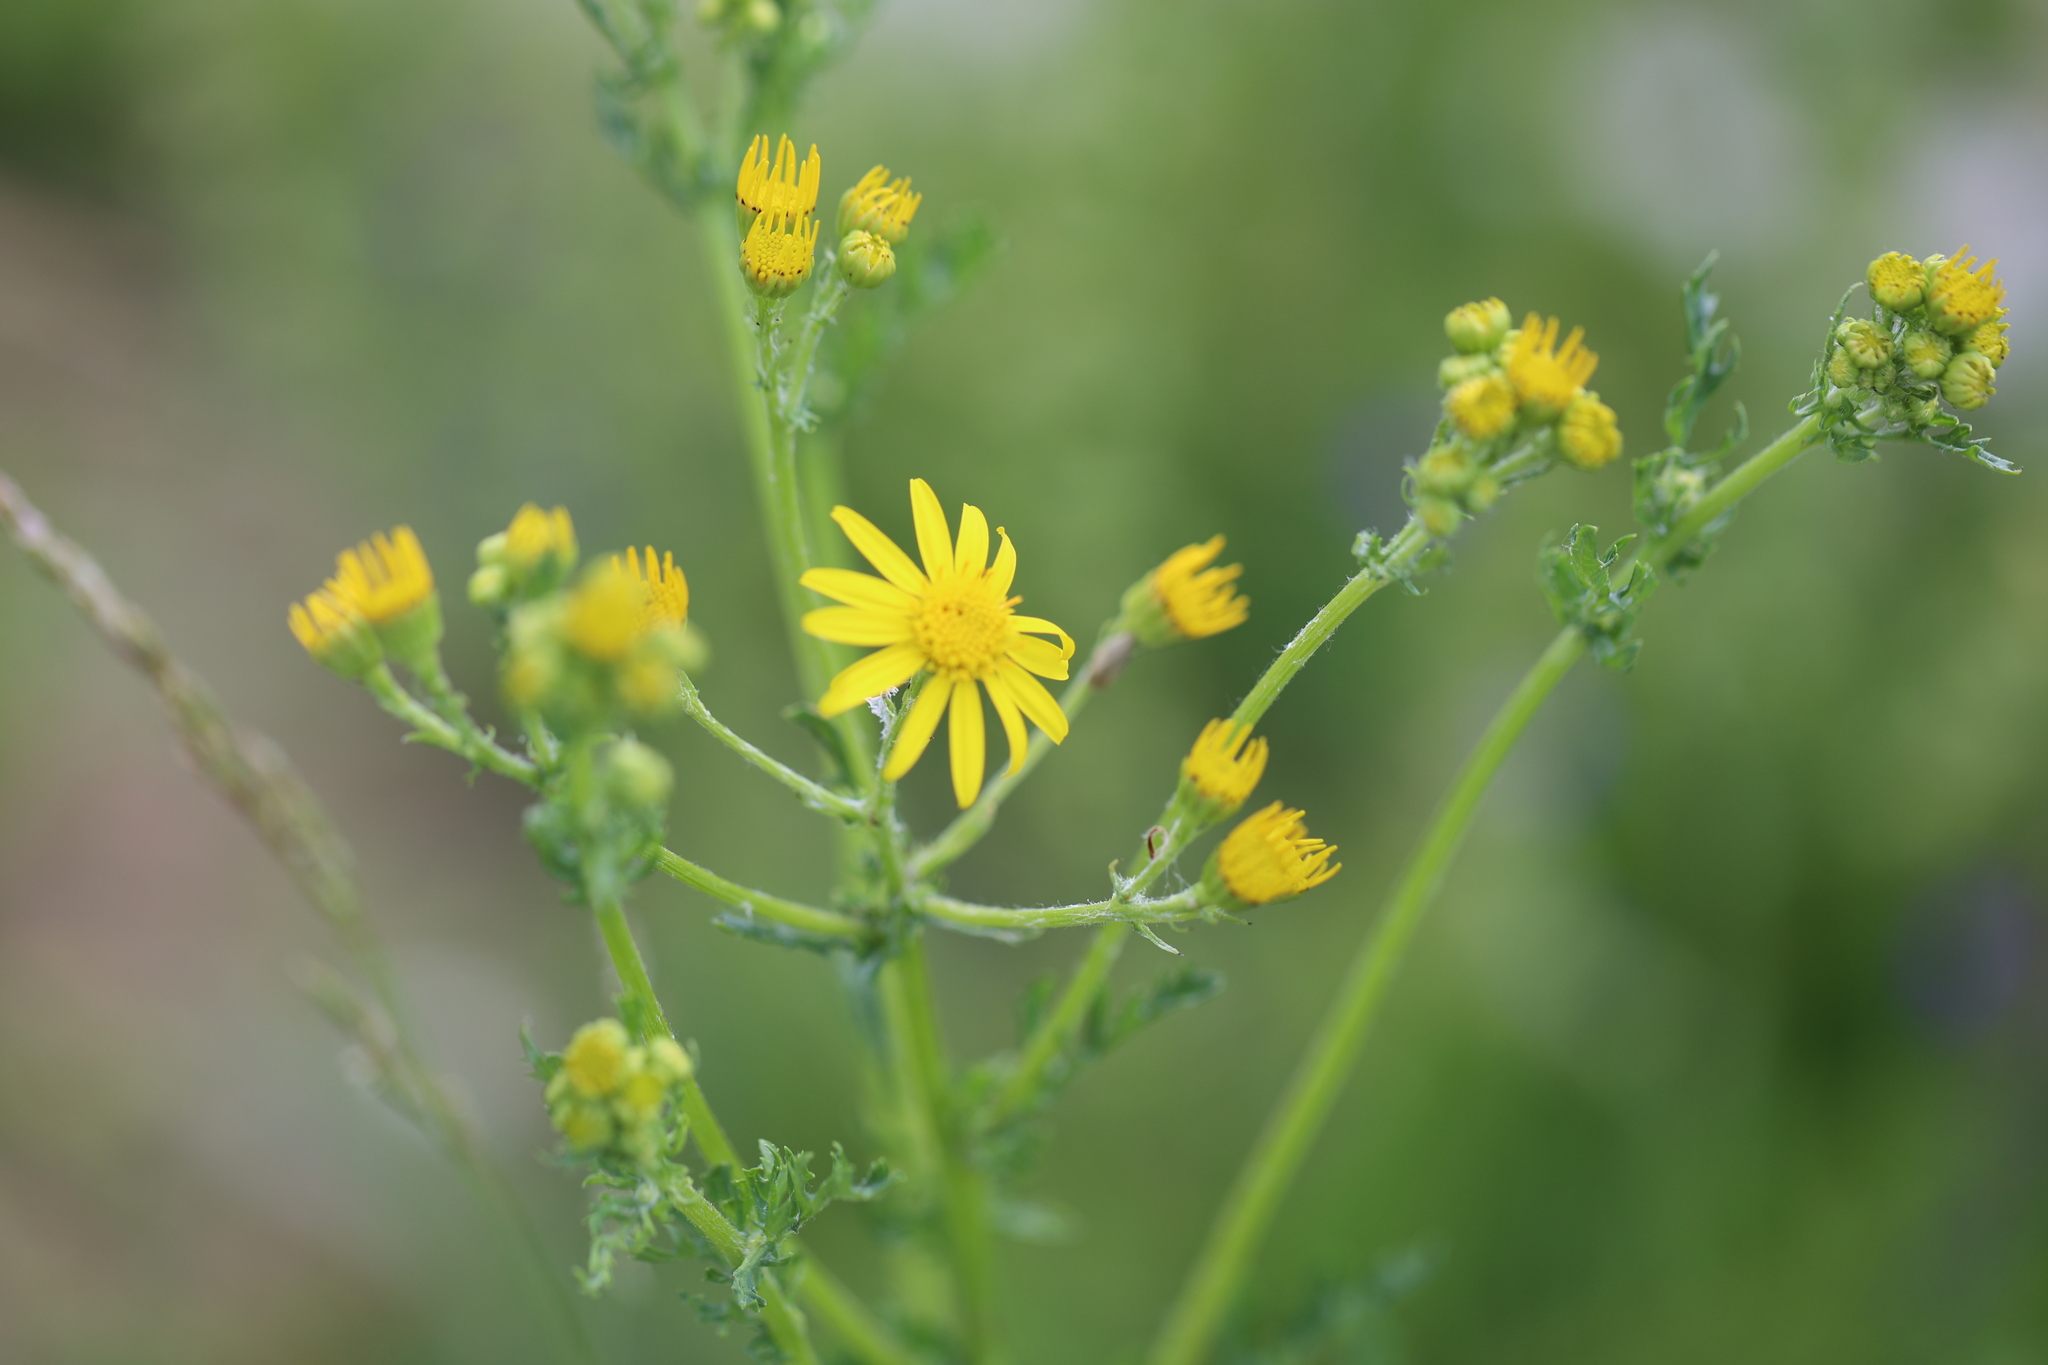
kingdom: Plantae
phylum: Tracheophyta
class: Magnoliopsida
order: Asterales
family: Asteraceae
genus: Jacobaea
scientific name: Jacobaea vulgaris
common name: Stinking willie
